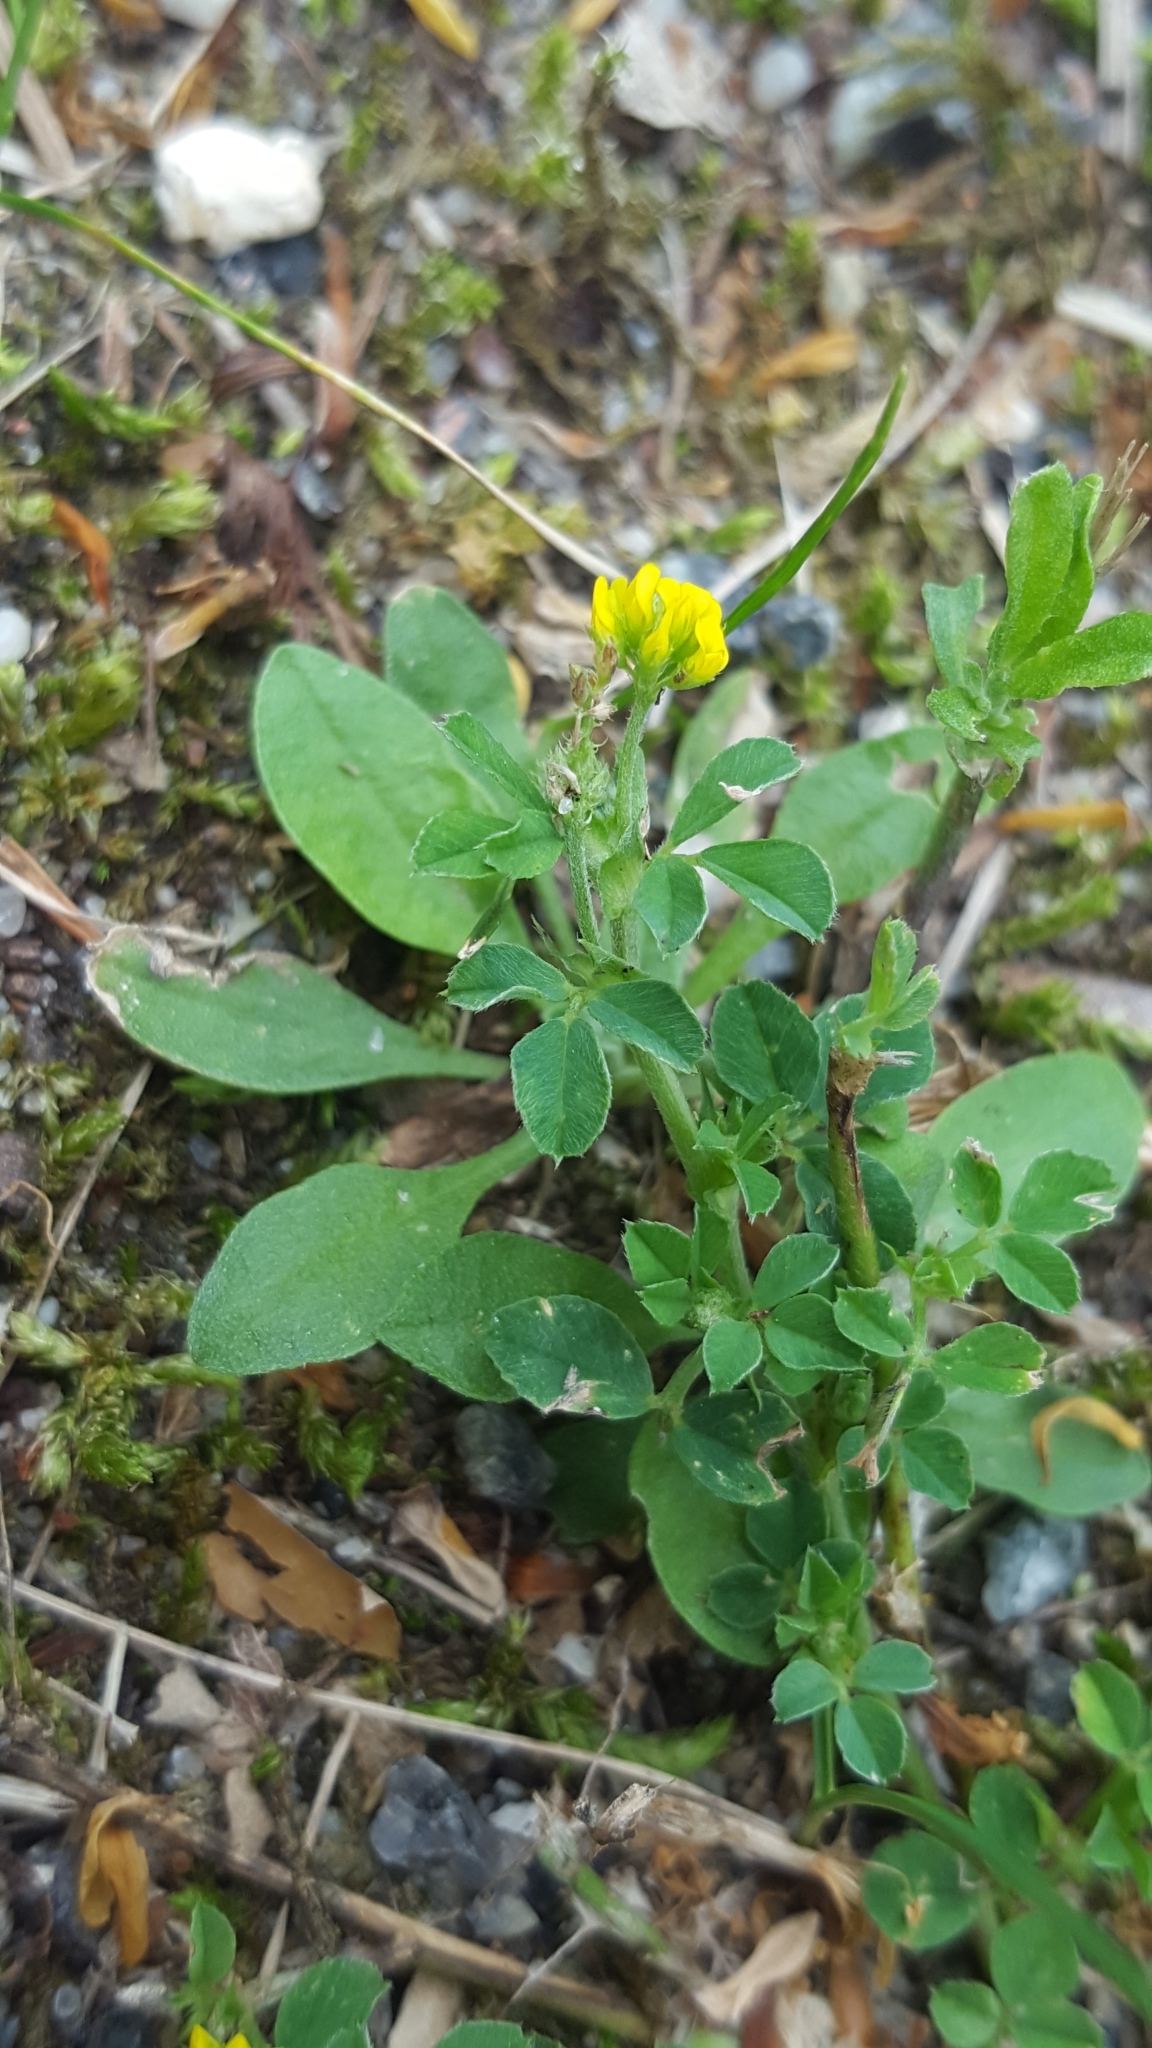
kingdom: Plantae
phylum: Tracheophyta
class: Magnoliopsida
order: Fabales
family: Fabaceae
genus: Medicago
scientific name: Medicago lupulina
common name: Black medick
